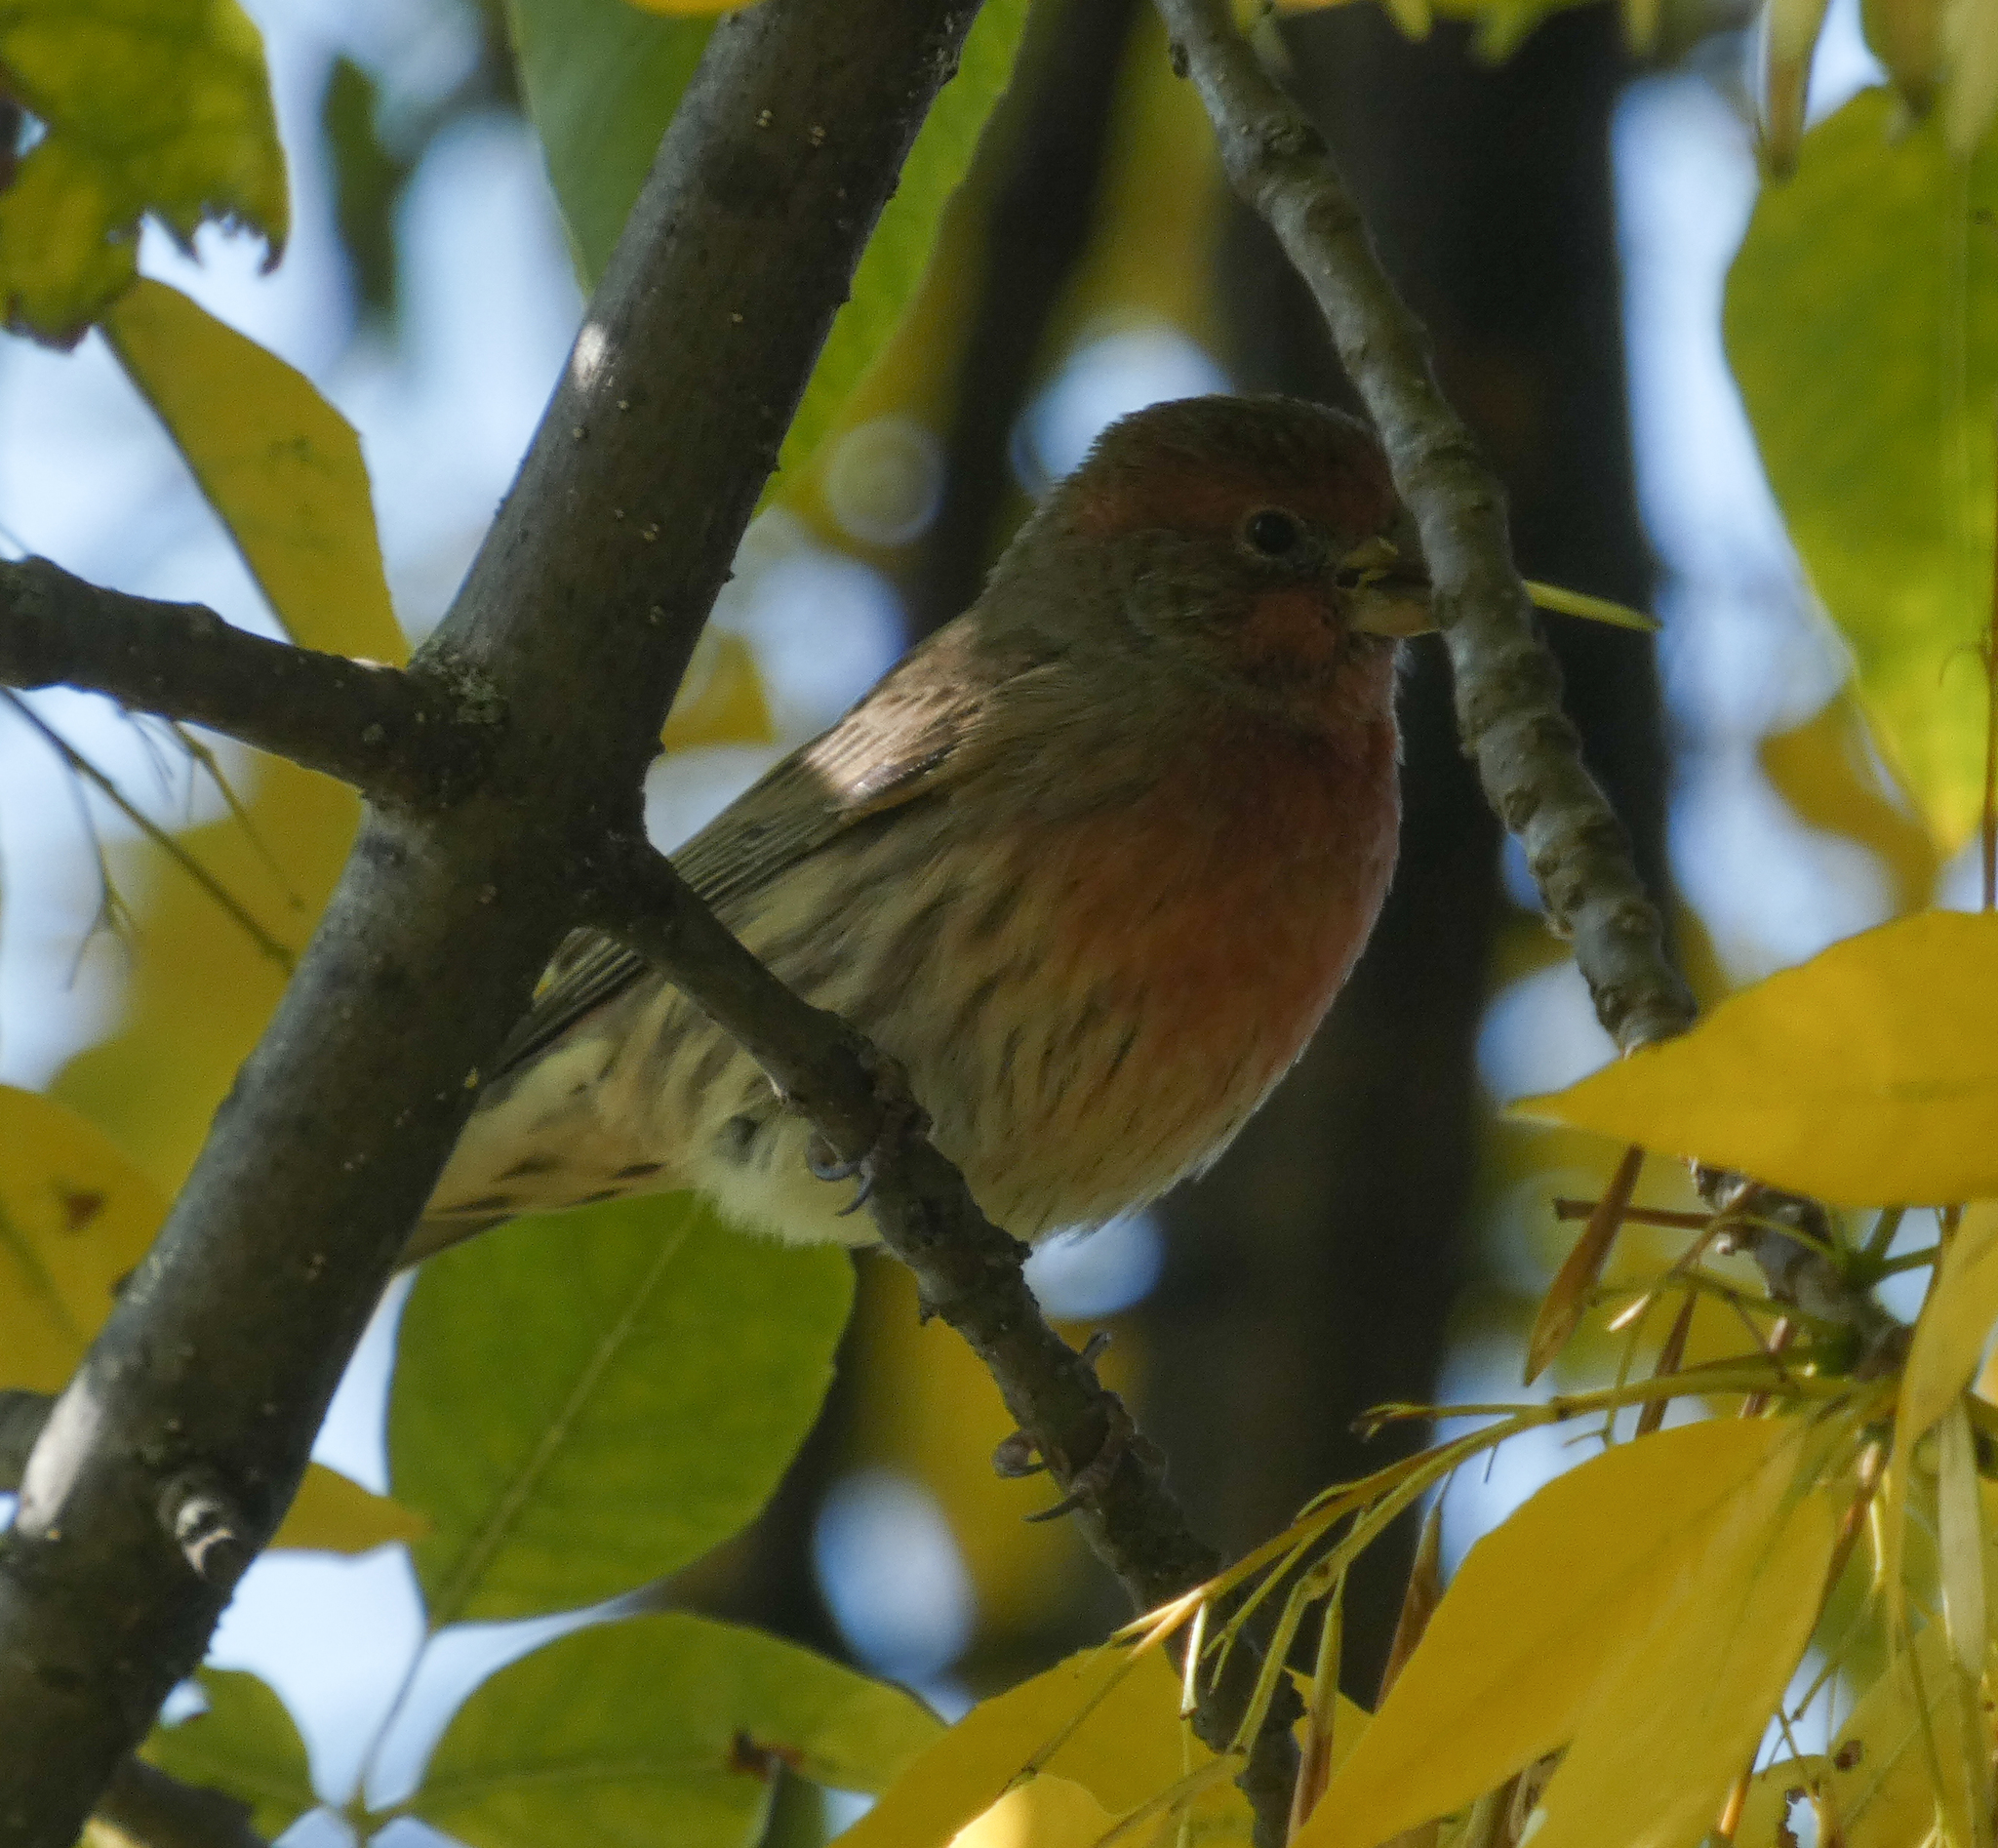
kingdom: Animalia
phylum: Chordata
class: Aves
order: Passeriformes
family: Fringillidae
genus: Haemorhous
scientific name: Haemorhous mexicanus
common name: House finch
